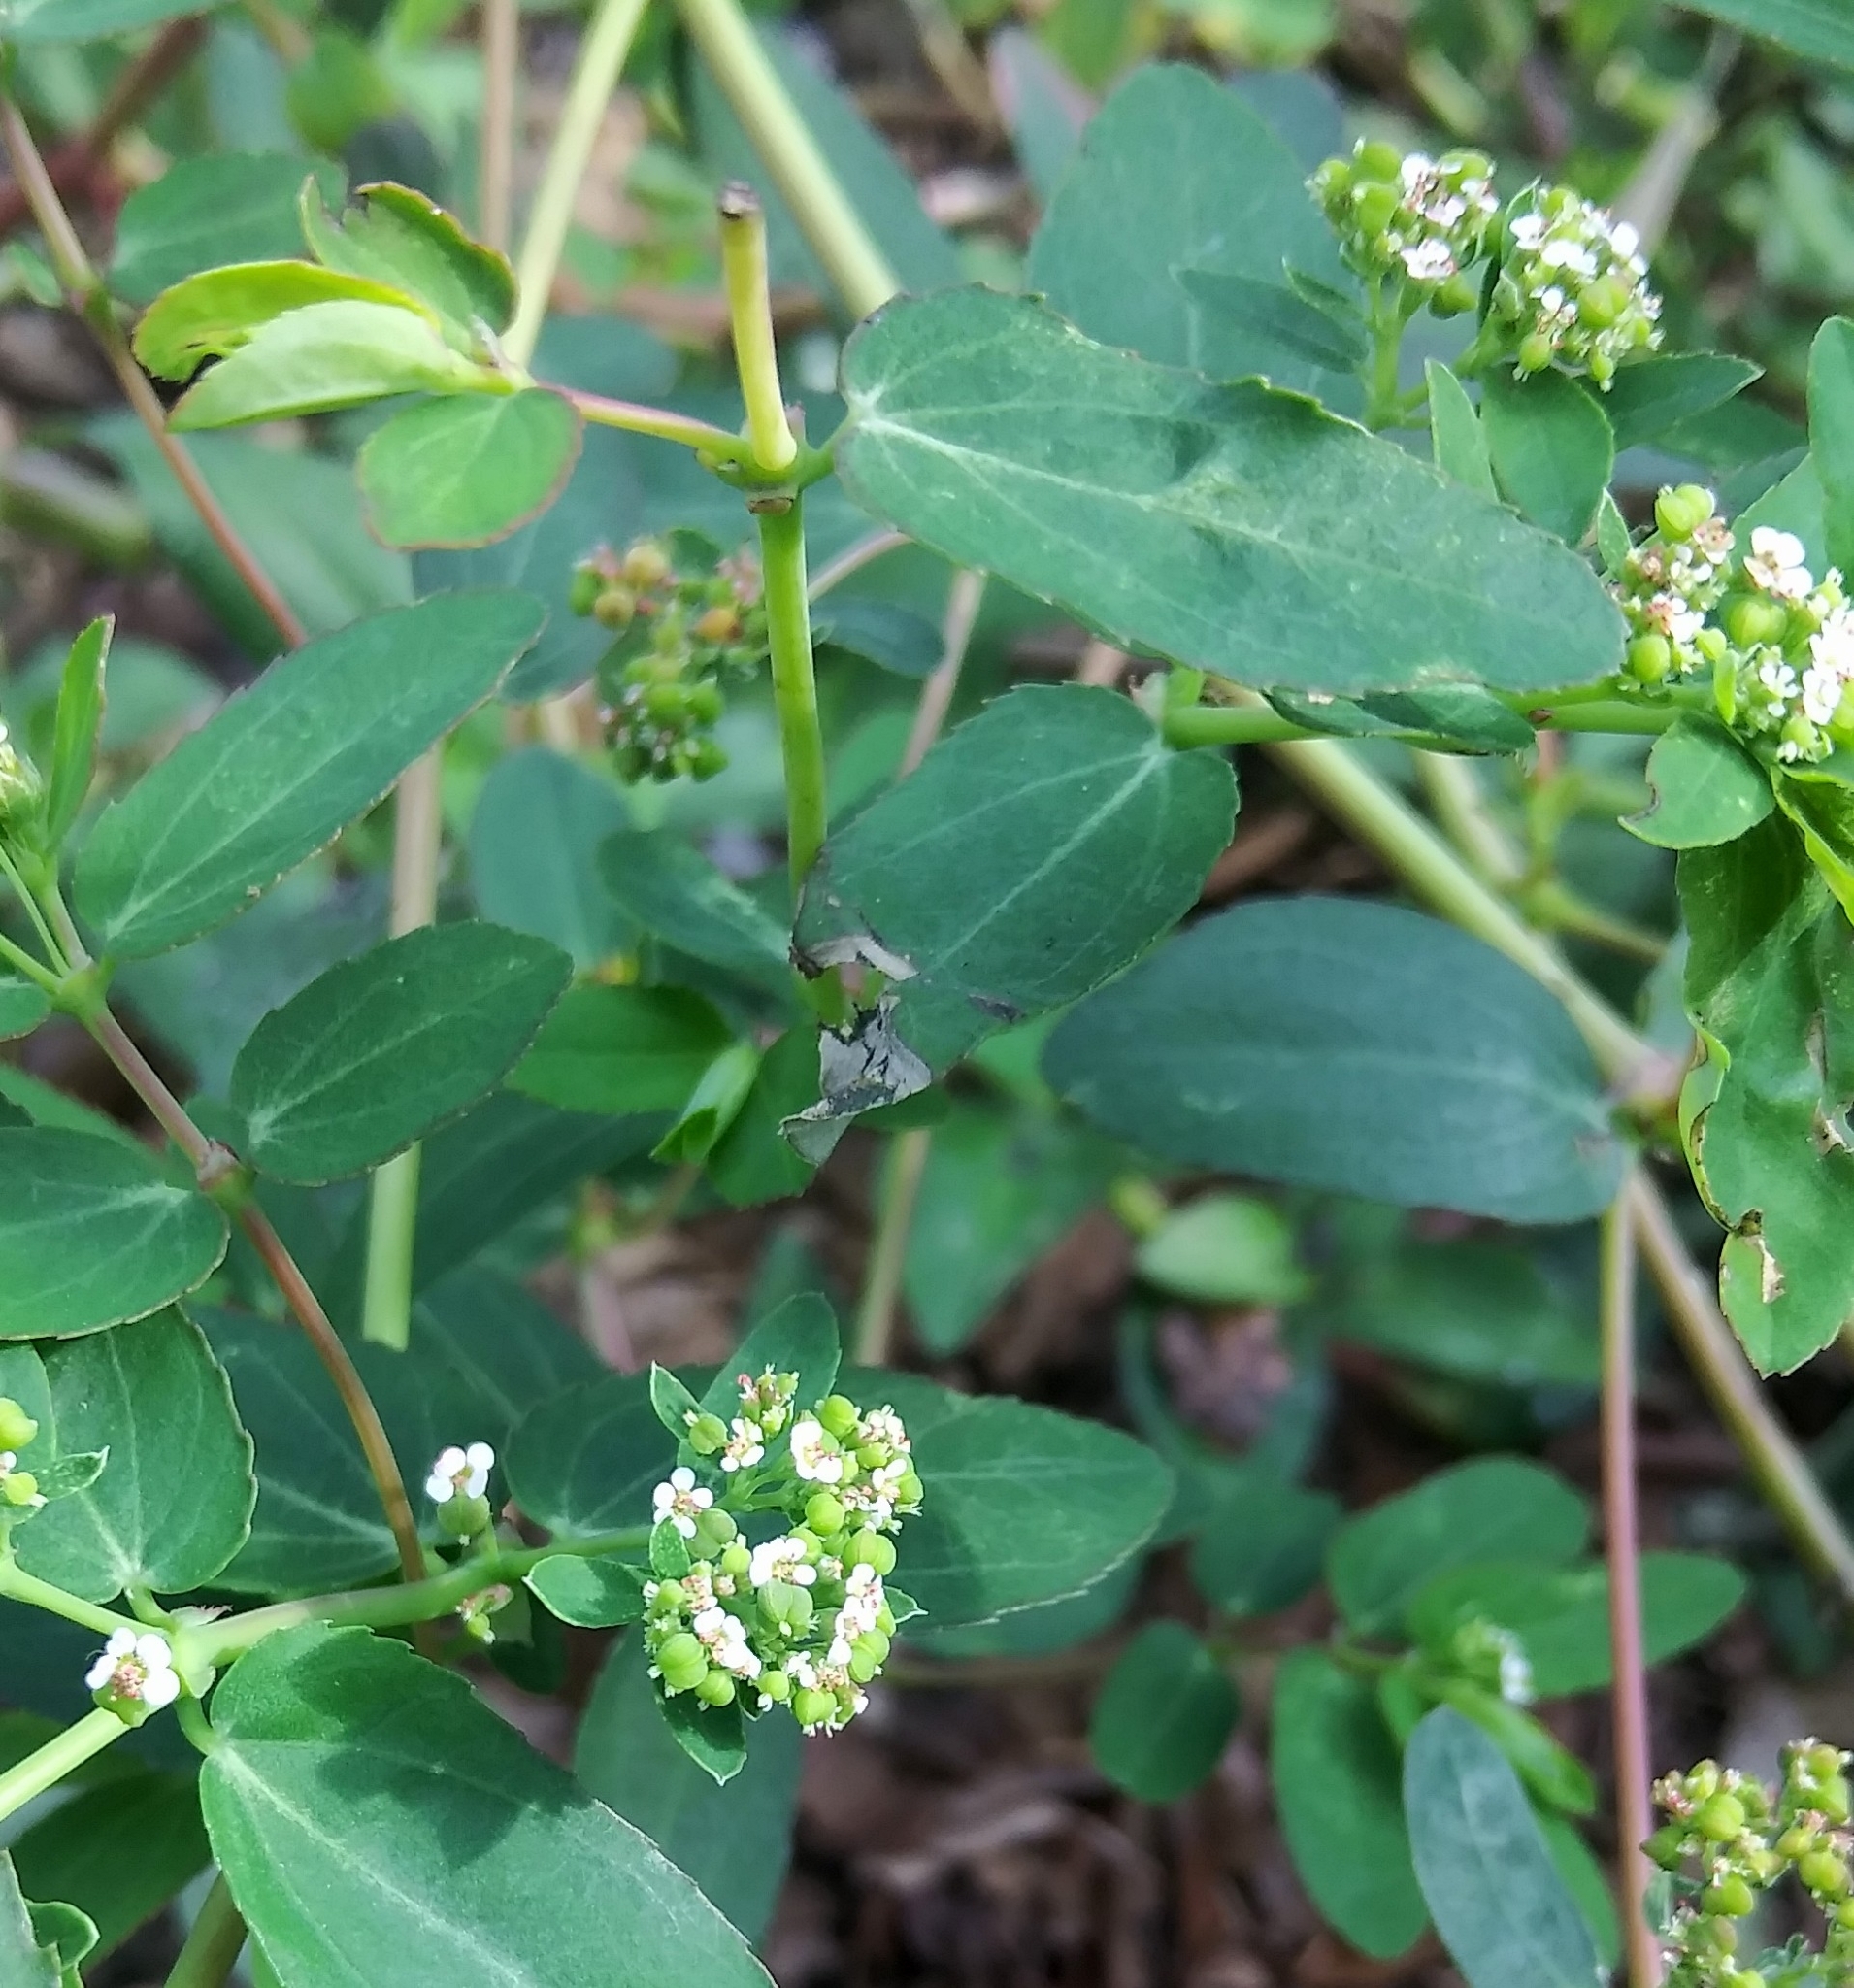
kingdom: Plantae
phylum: Tracheophyta
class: Magnoliopsida
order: Malpighiales
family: Euphorbiaceae
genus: Euphorbia
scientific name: Euphorbia hypericifolia
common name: Graceful sandmat
